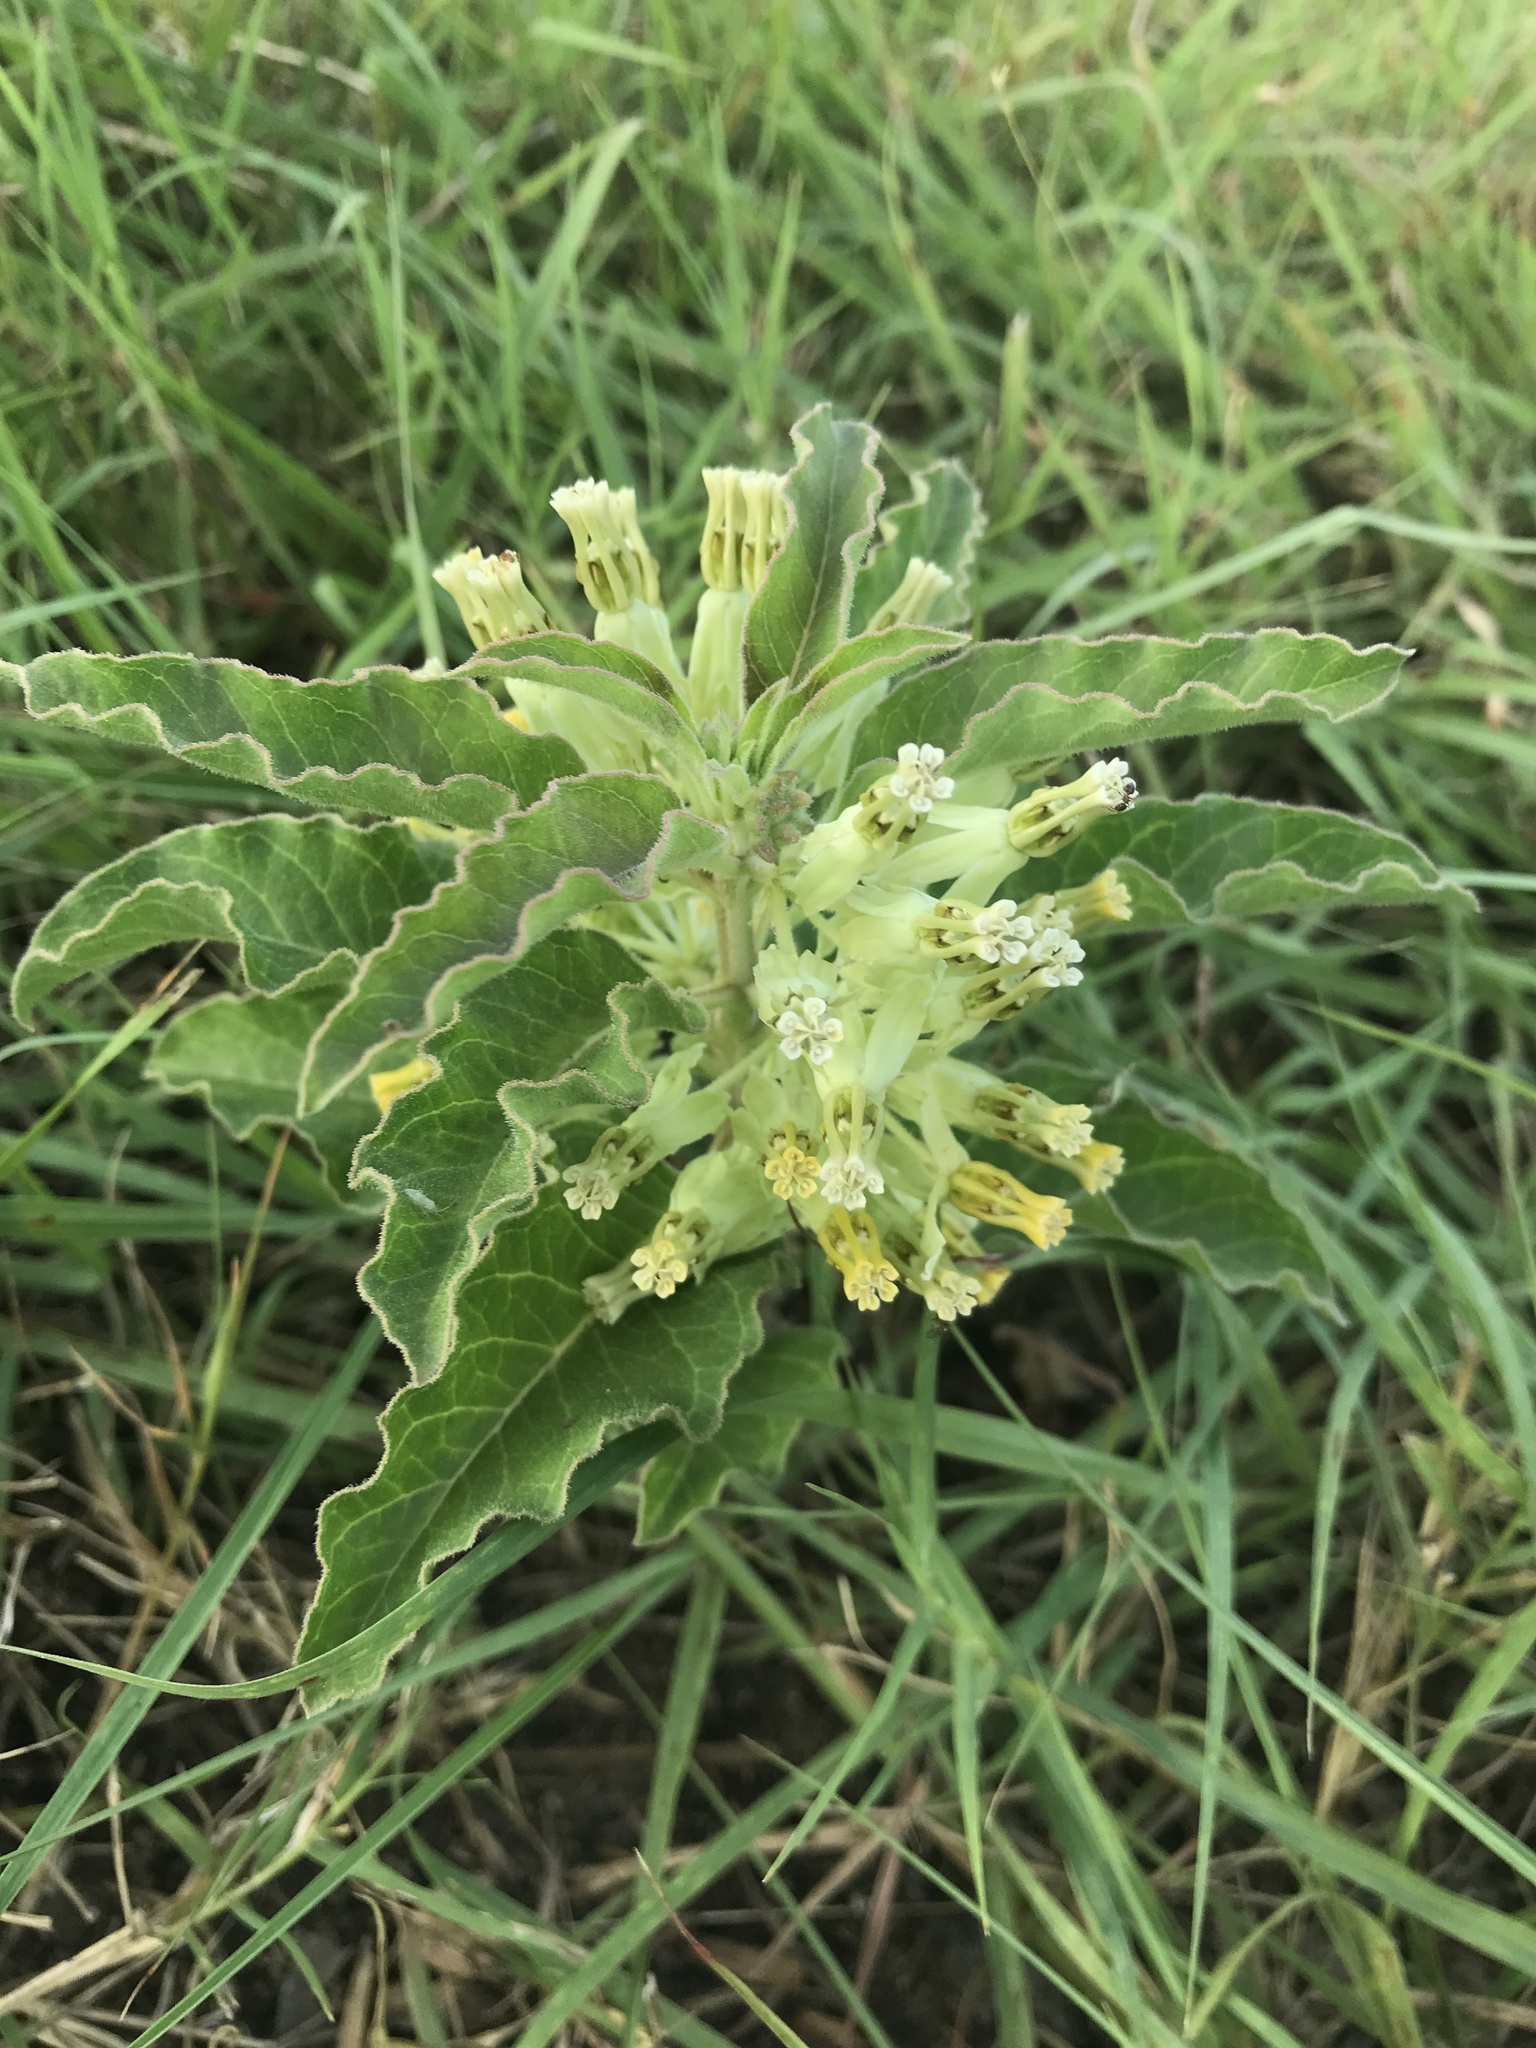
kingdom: Plantae
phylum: Tracheophyta
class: Magnoliopsida
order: Gentianales
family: Apocynaceae
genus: Asclepias
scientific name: Asclepias oenotheroides
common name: Zizotes milkweed
